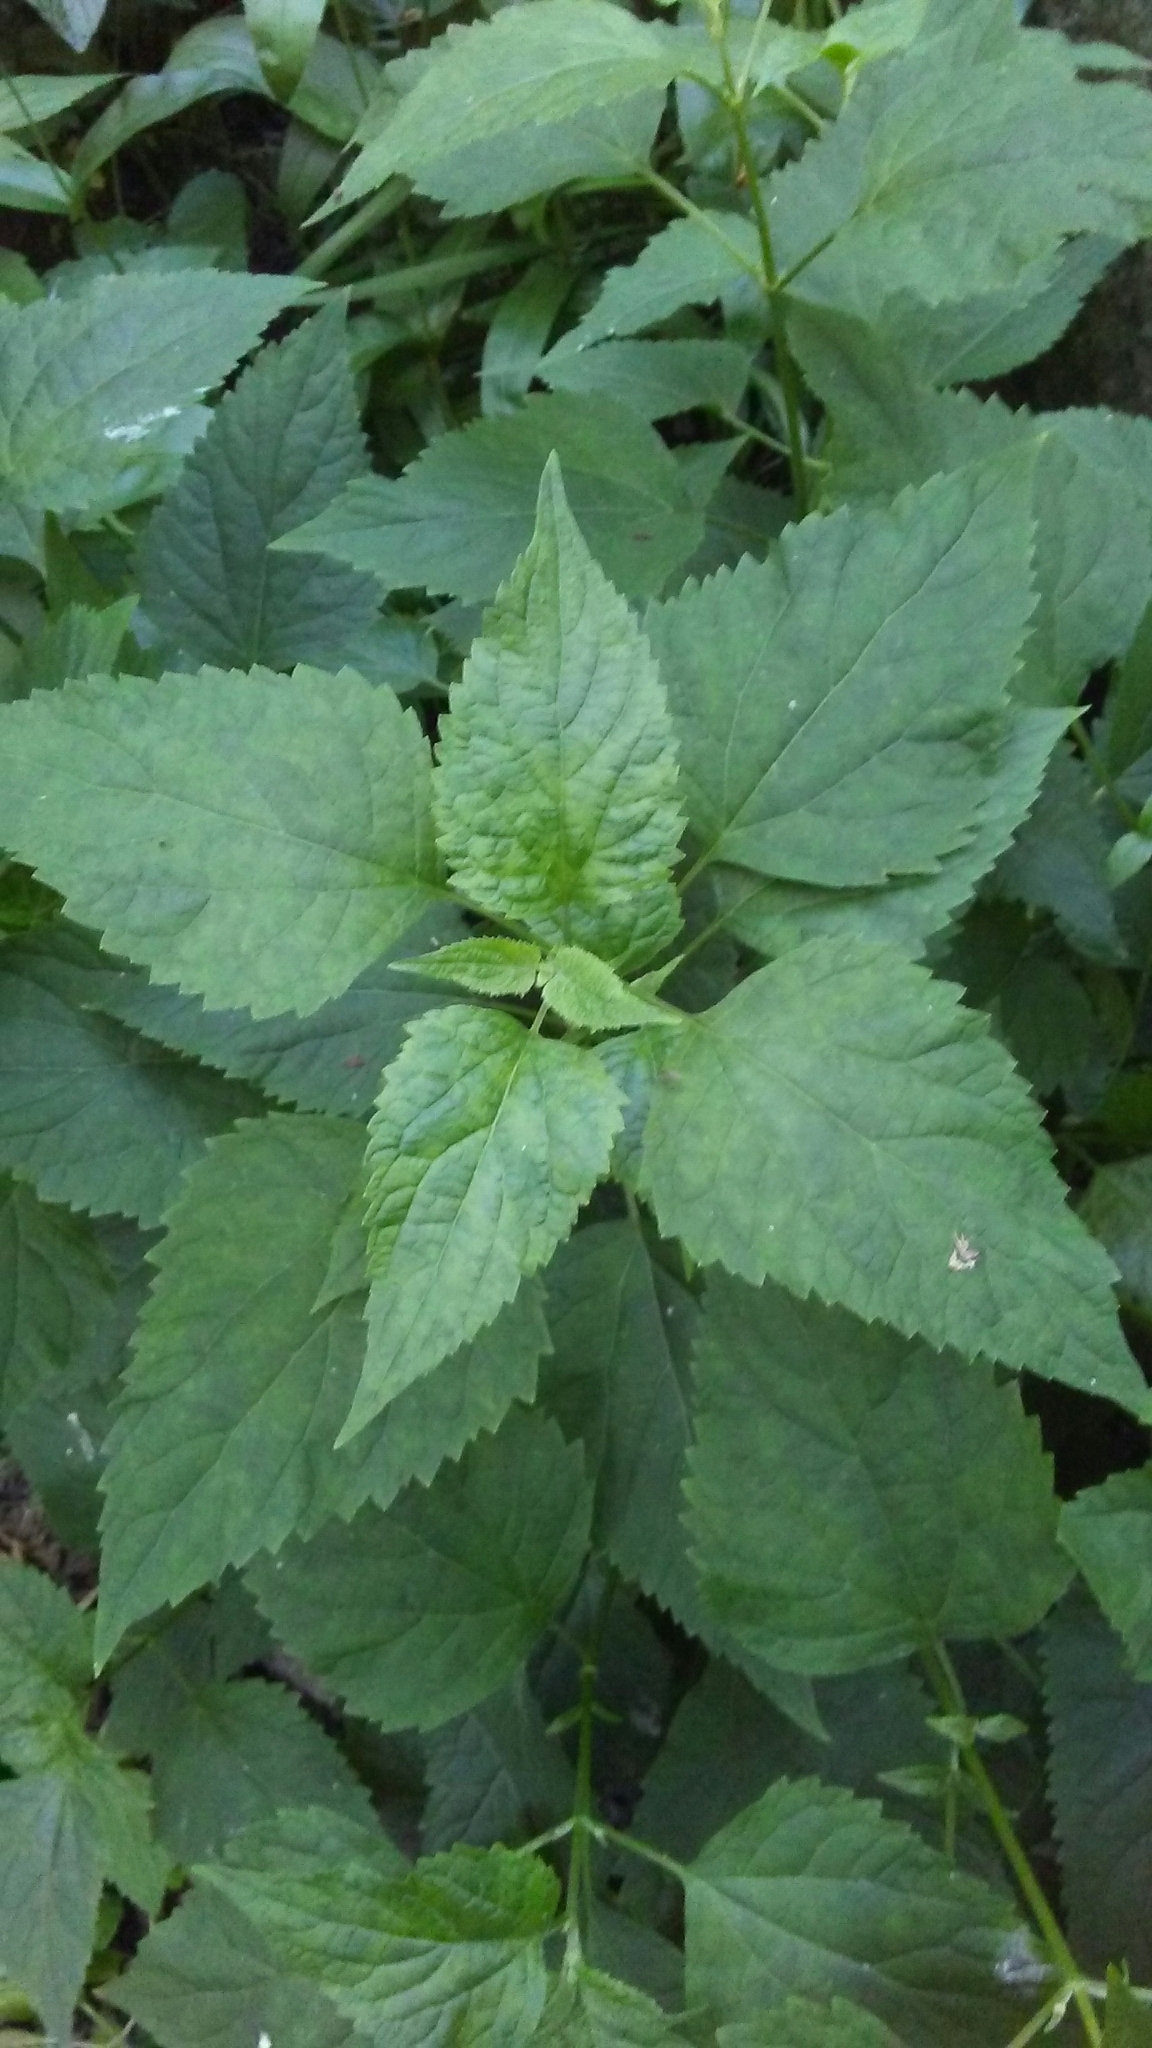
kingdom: Plantae
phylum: Tracheophyta
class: Magnoliopsida
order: Asterales
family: Asteraceae
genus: Ageratina
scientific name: Ageratina altissima
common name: White snakeroot
